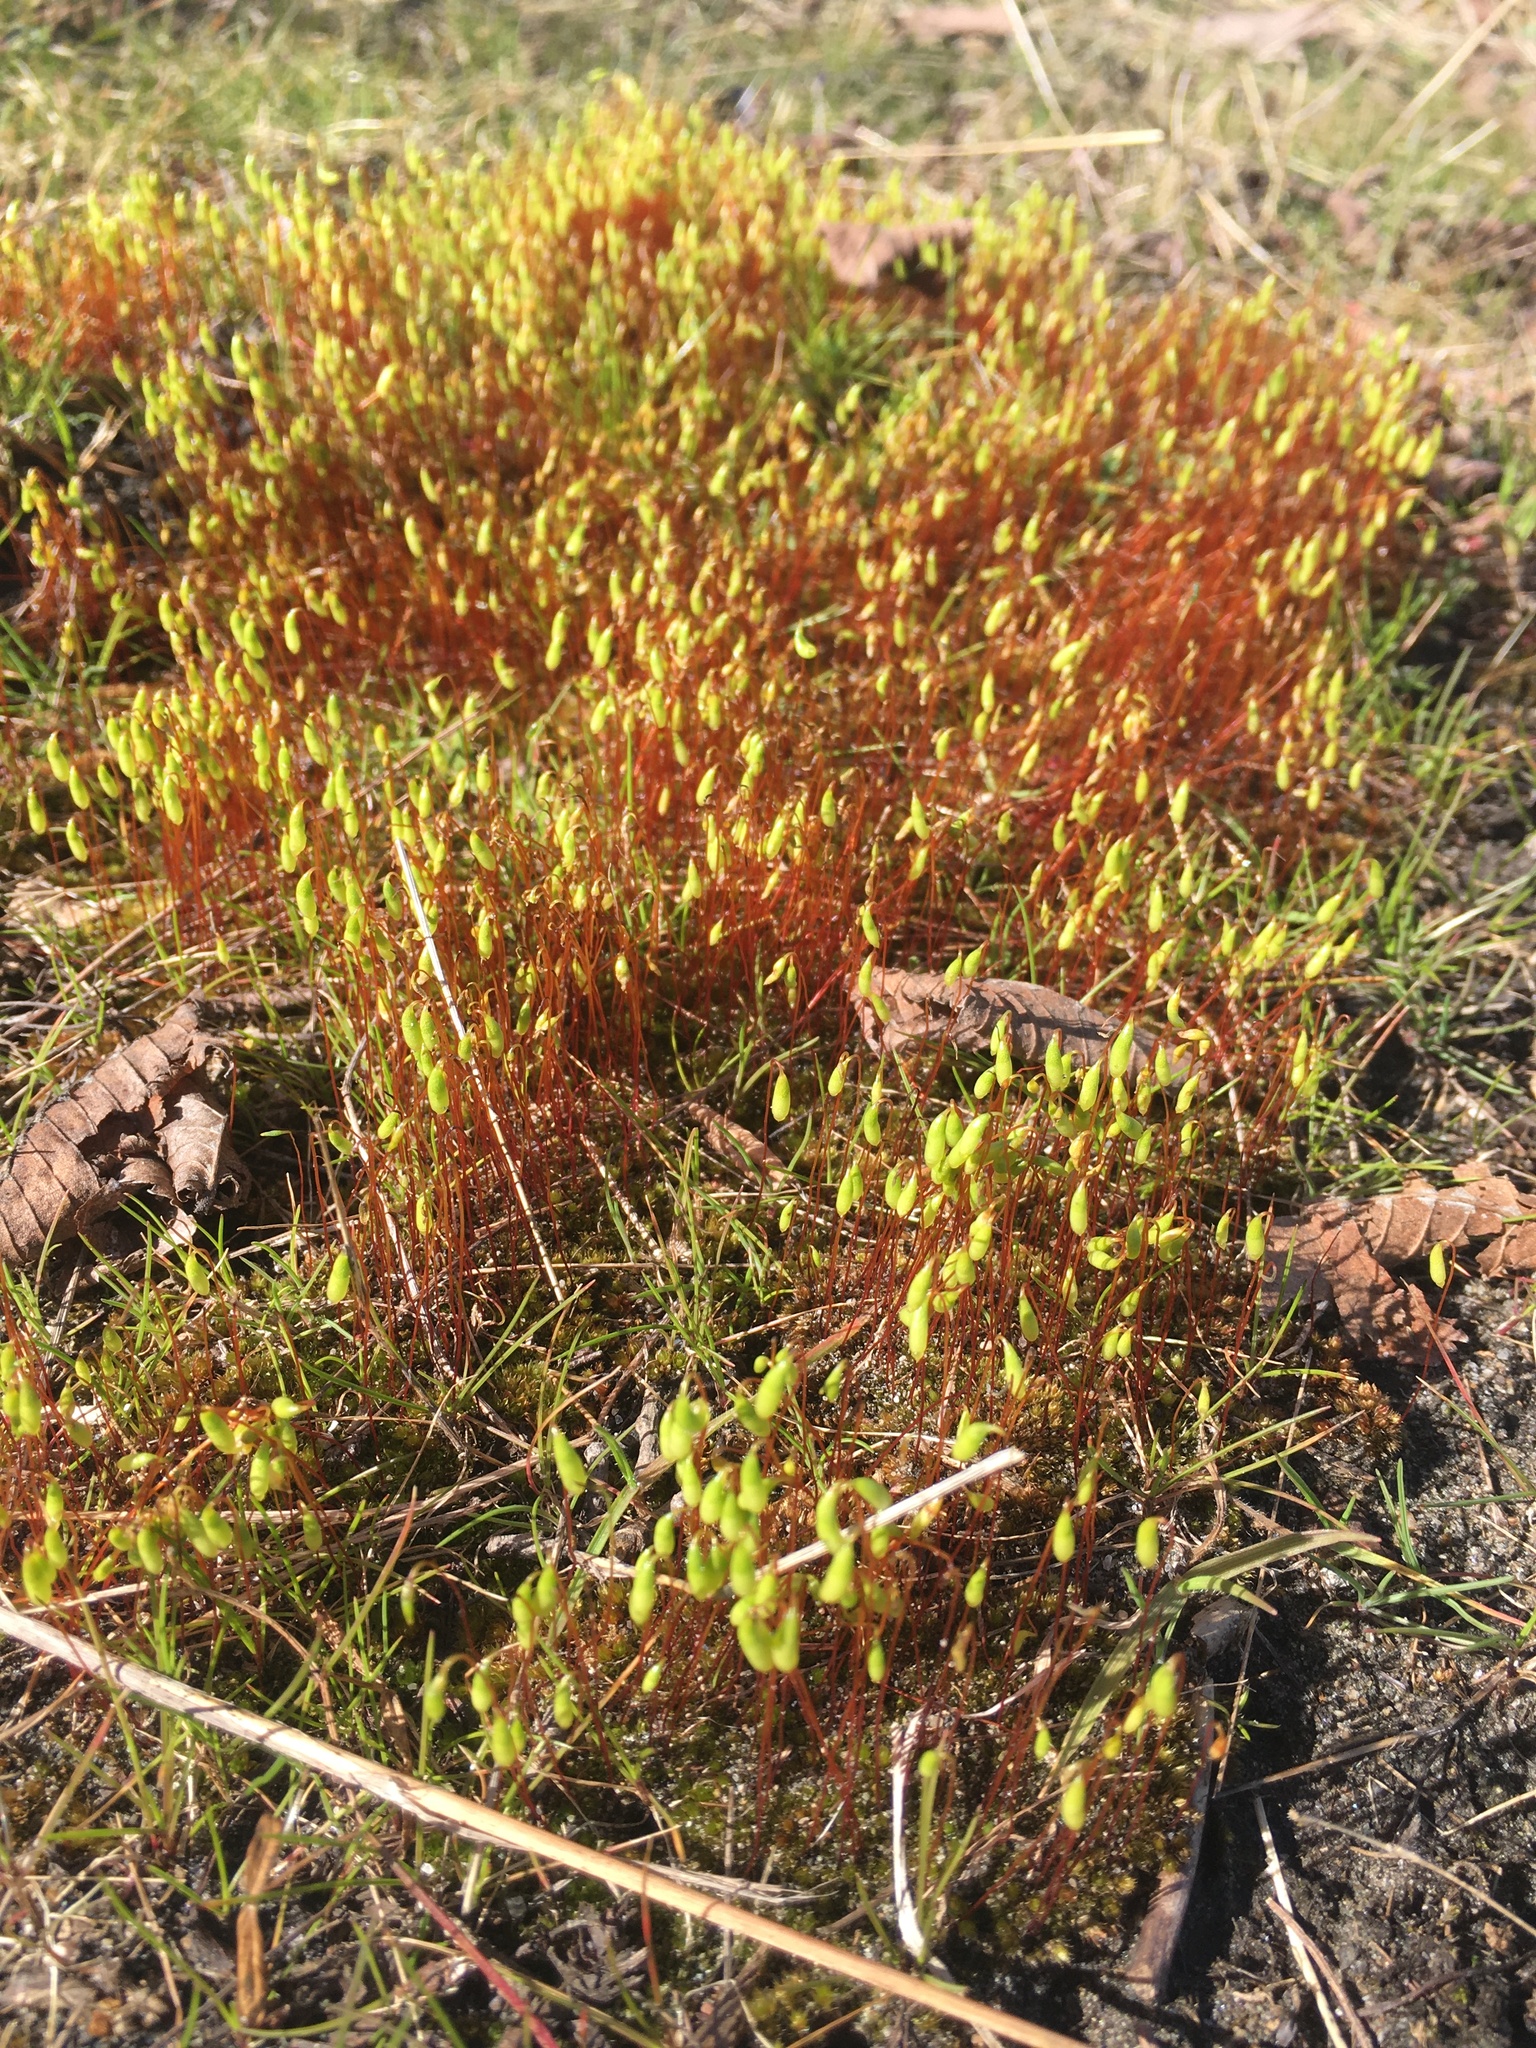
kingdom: Plantae
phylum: Bryophyta
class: Bryopsida
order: Bryales
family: Bryaceae
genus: Rosulabryum
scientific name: Rosulabryum capillare
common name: Capillary thread-moss
